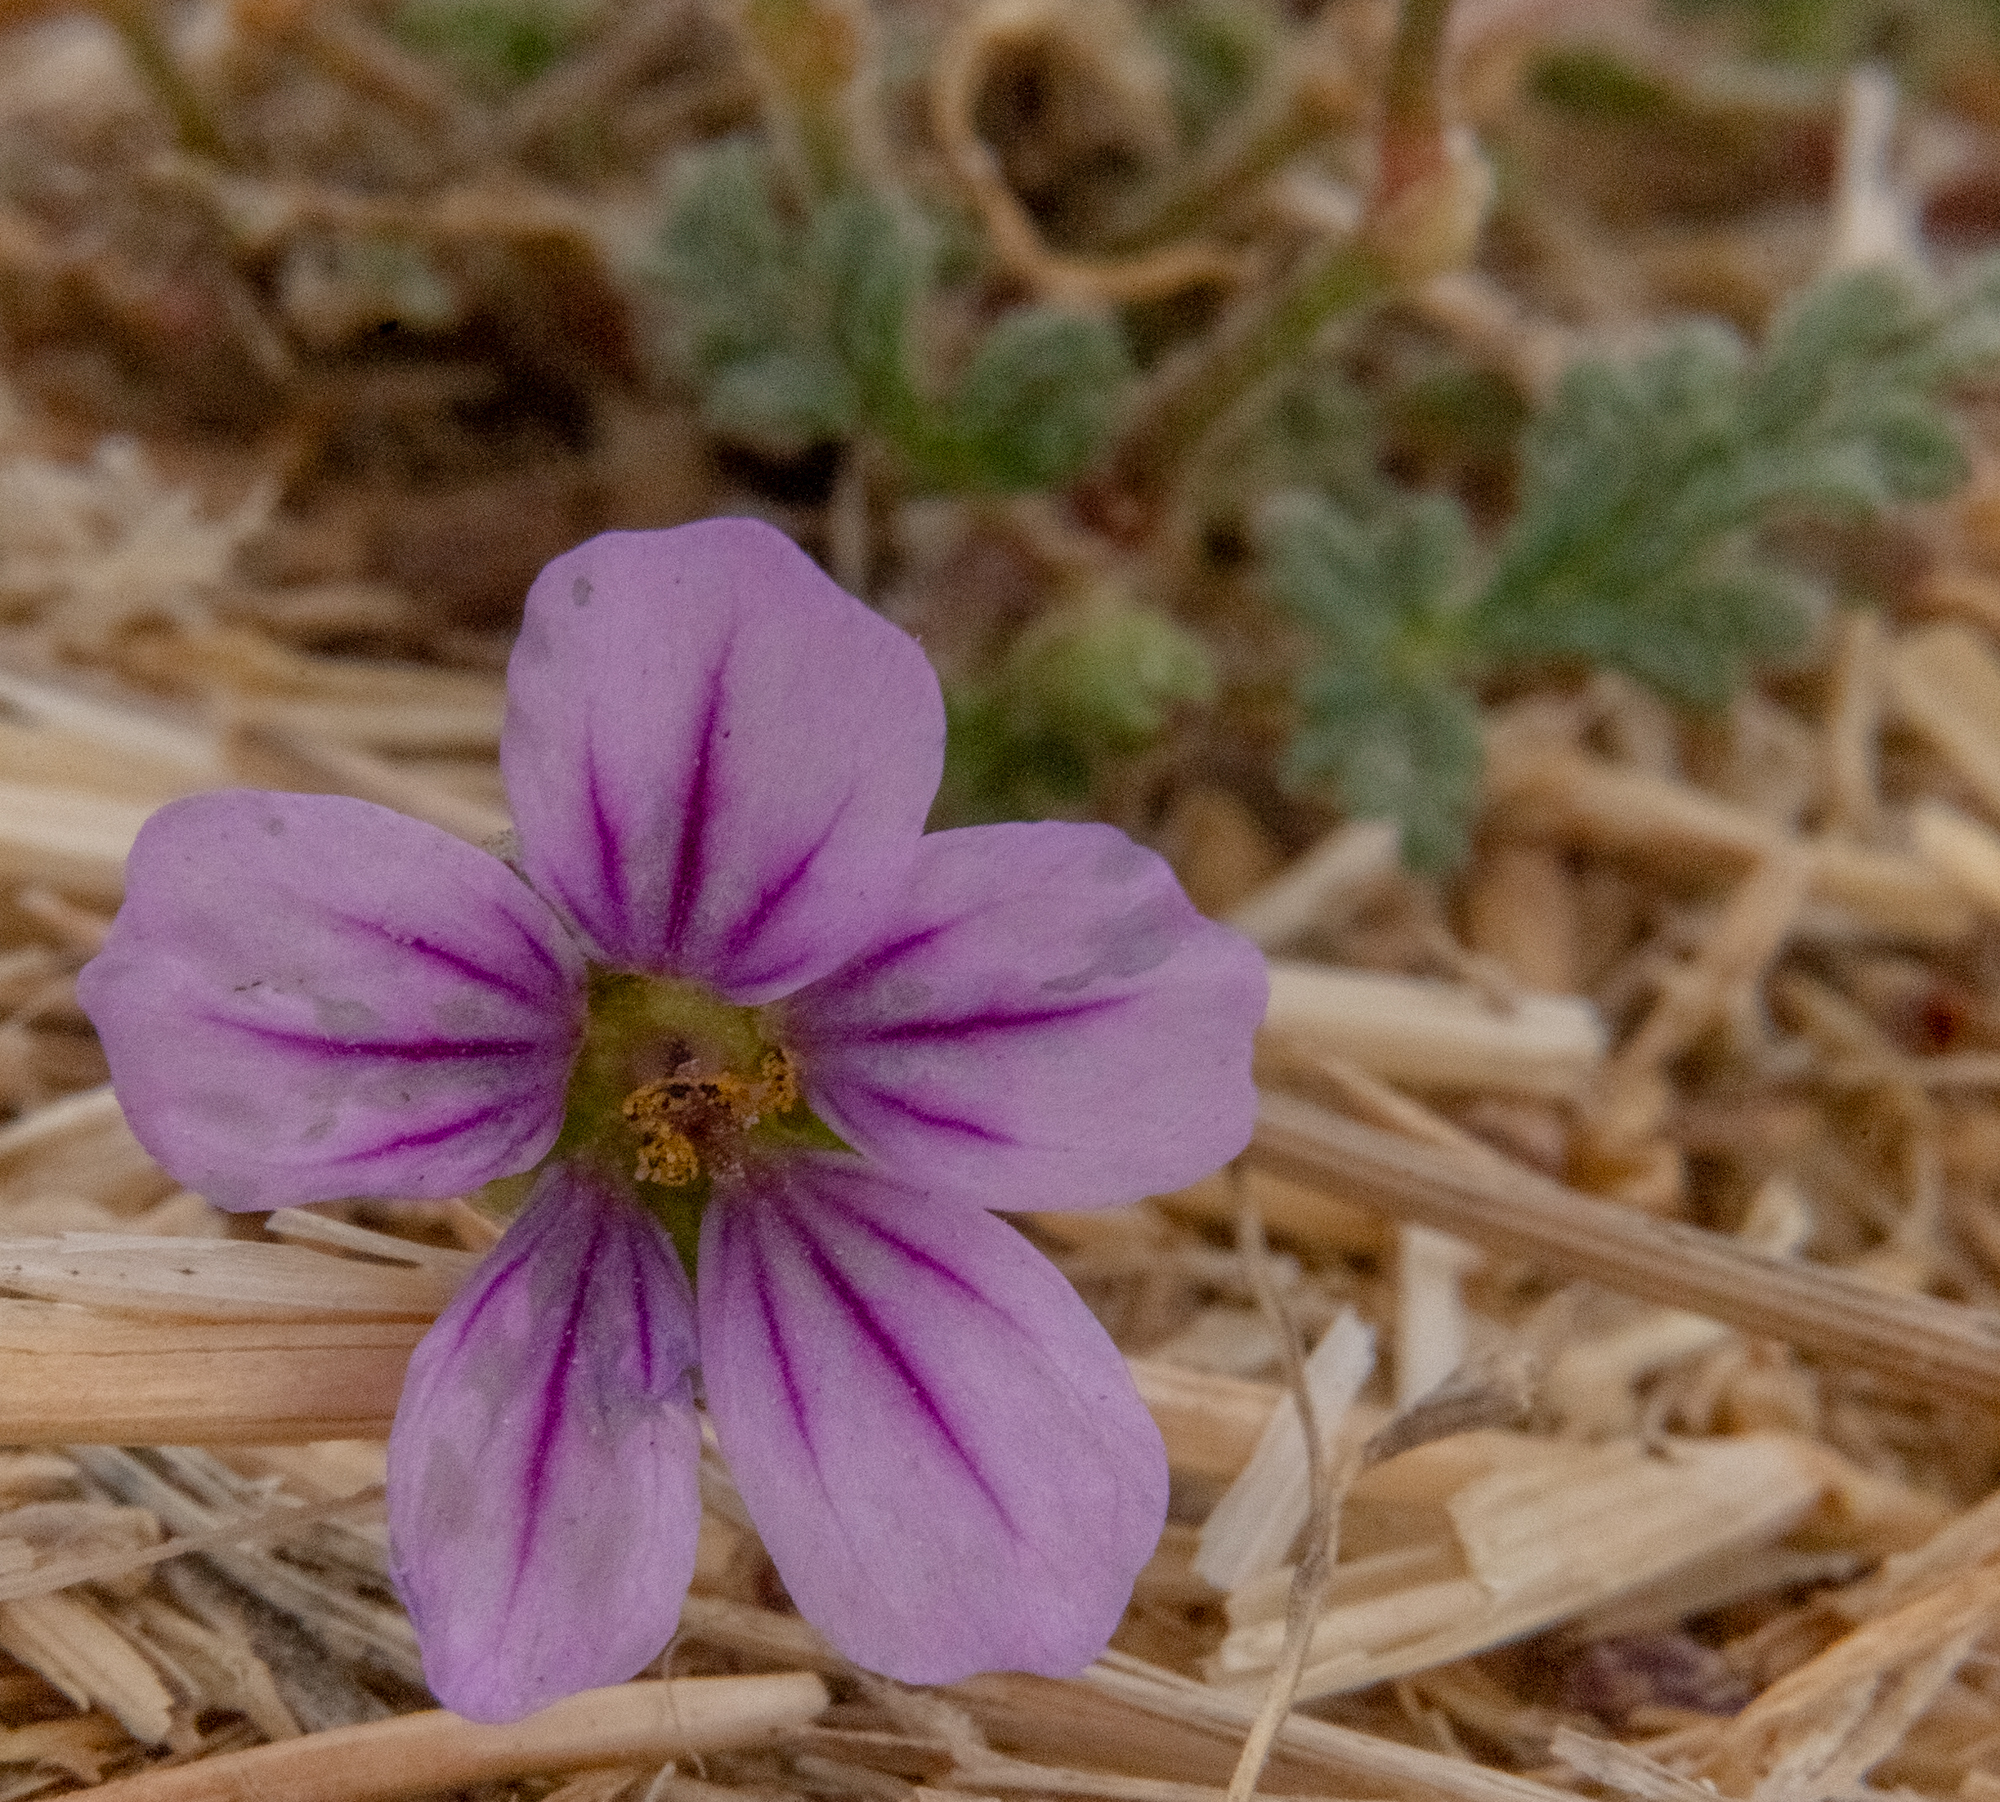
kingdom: Plantae
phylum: Tracheophyta
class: Magnoliopsida
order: Geraniales
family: Geraniaceae
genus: Erodium
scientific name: Erodium botrys
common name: Mediterranean stork's-bill
